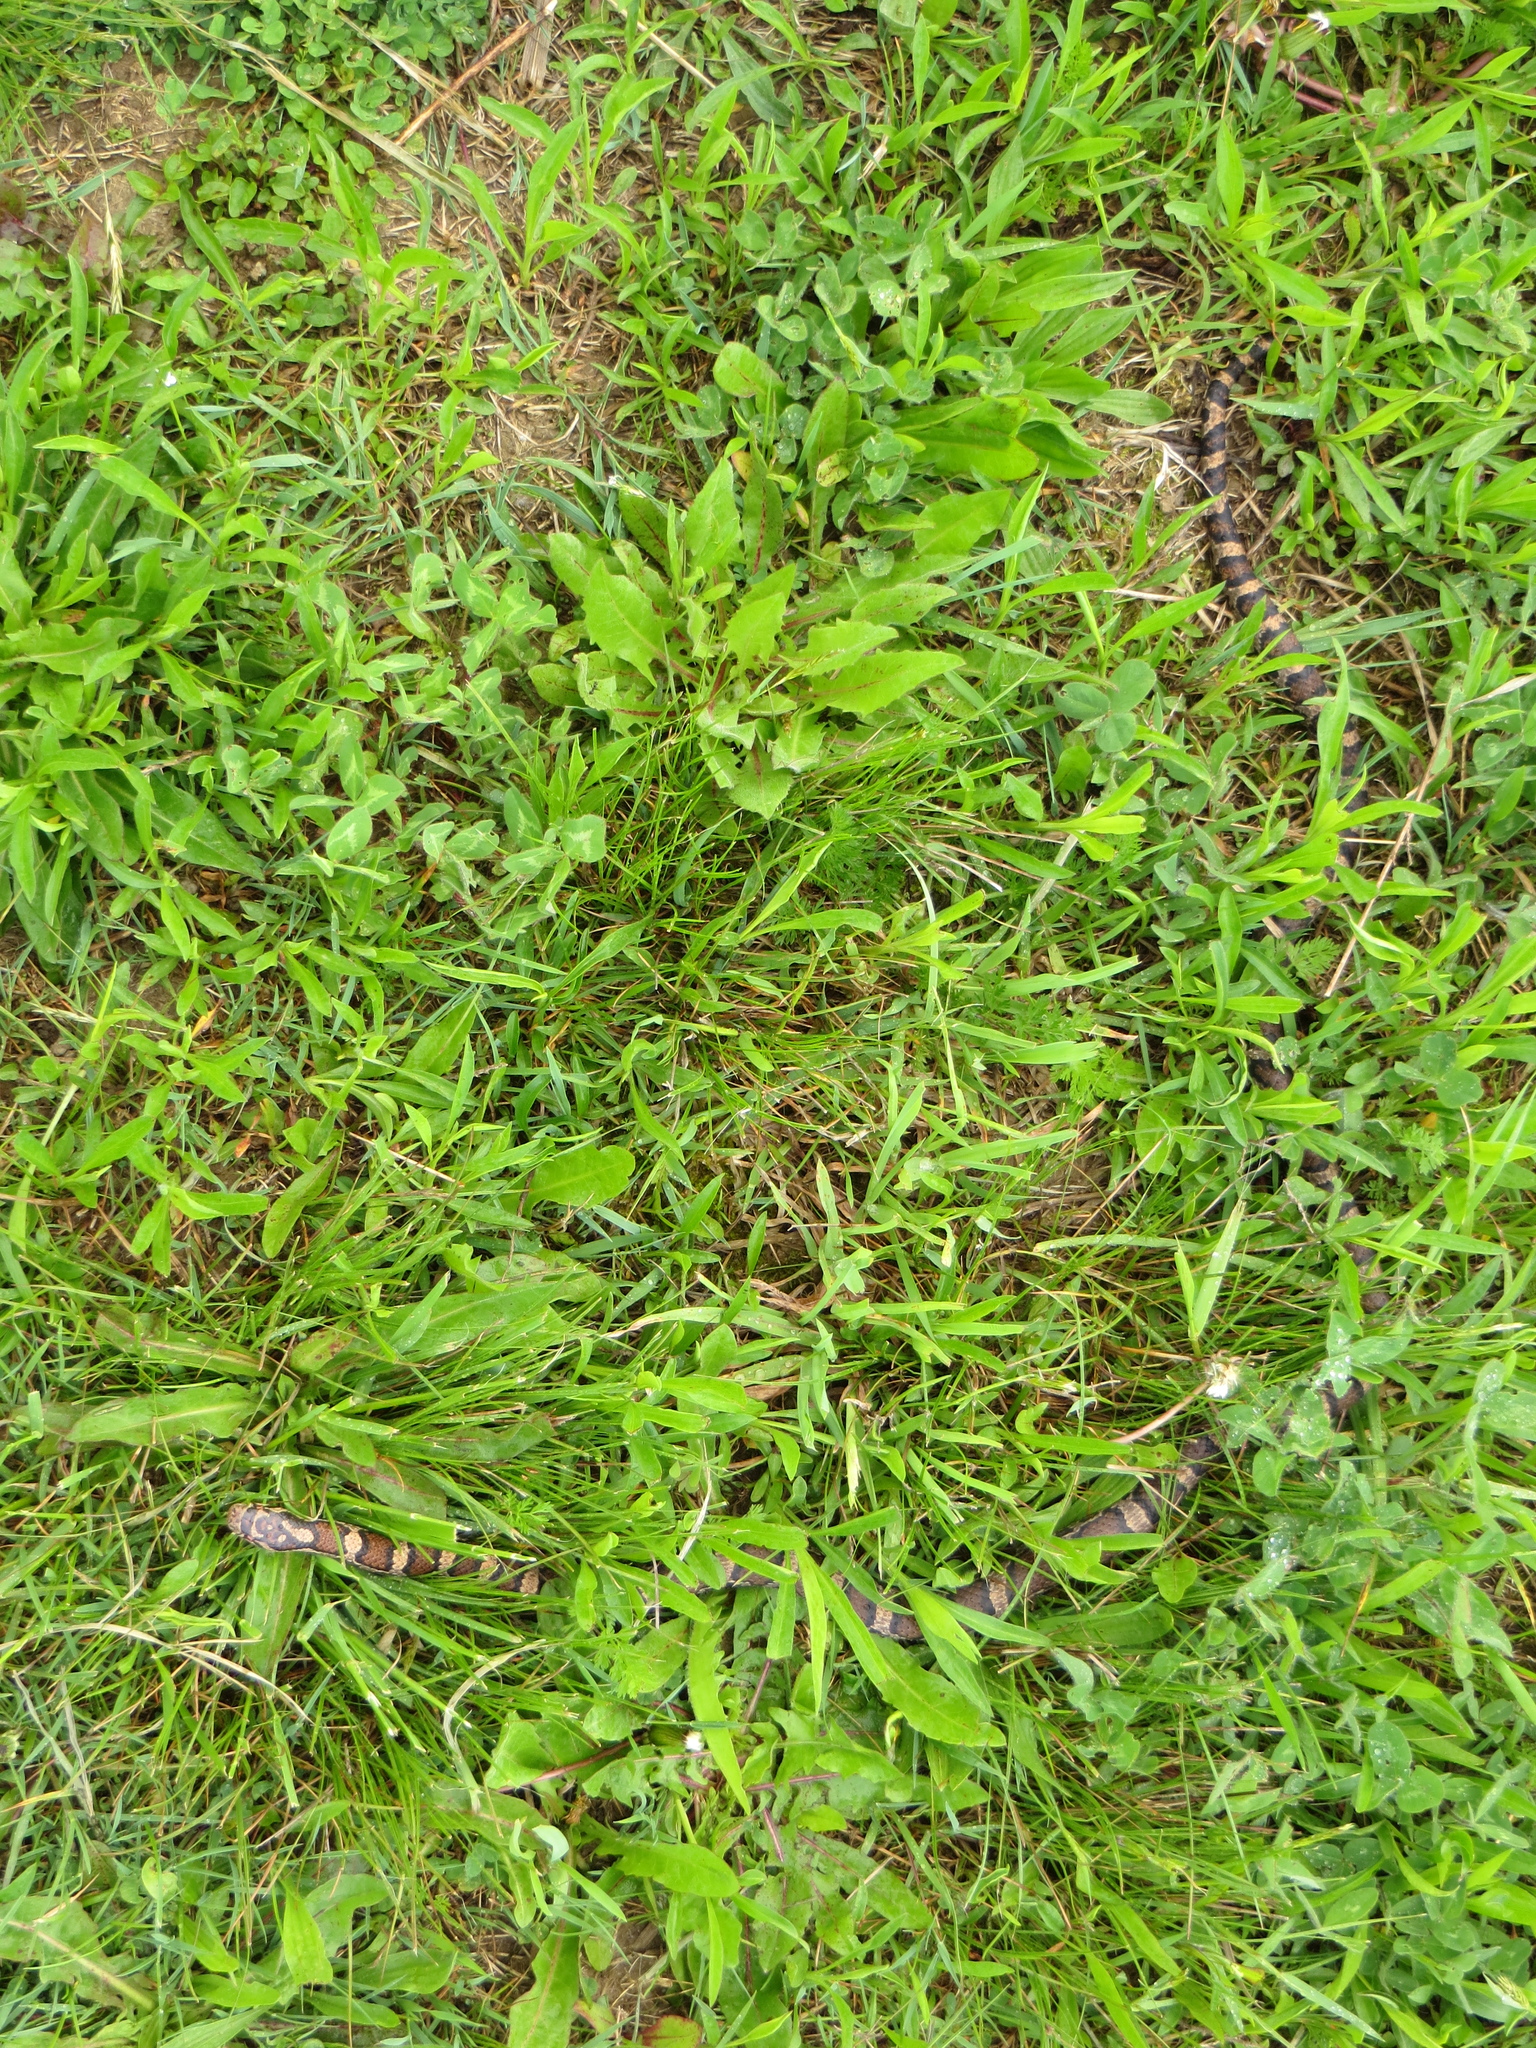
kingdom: Animalia
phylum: Chordata
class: Squamata
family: Colubridae
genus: Lampropeltis
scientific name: Lampropeltis triangulum
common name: Eastern milksnake
